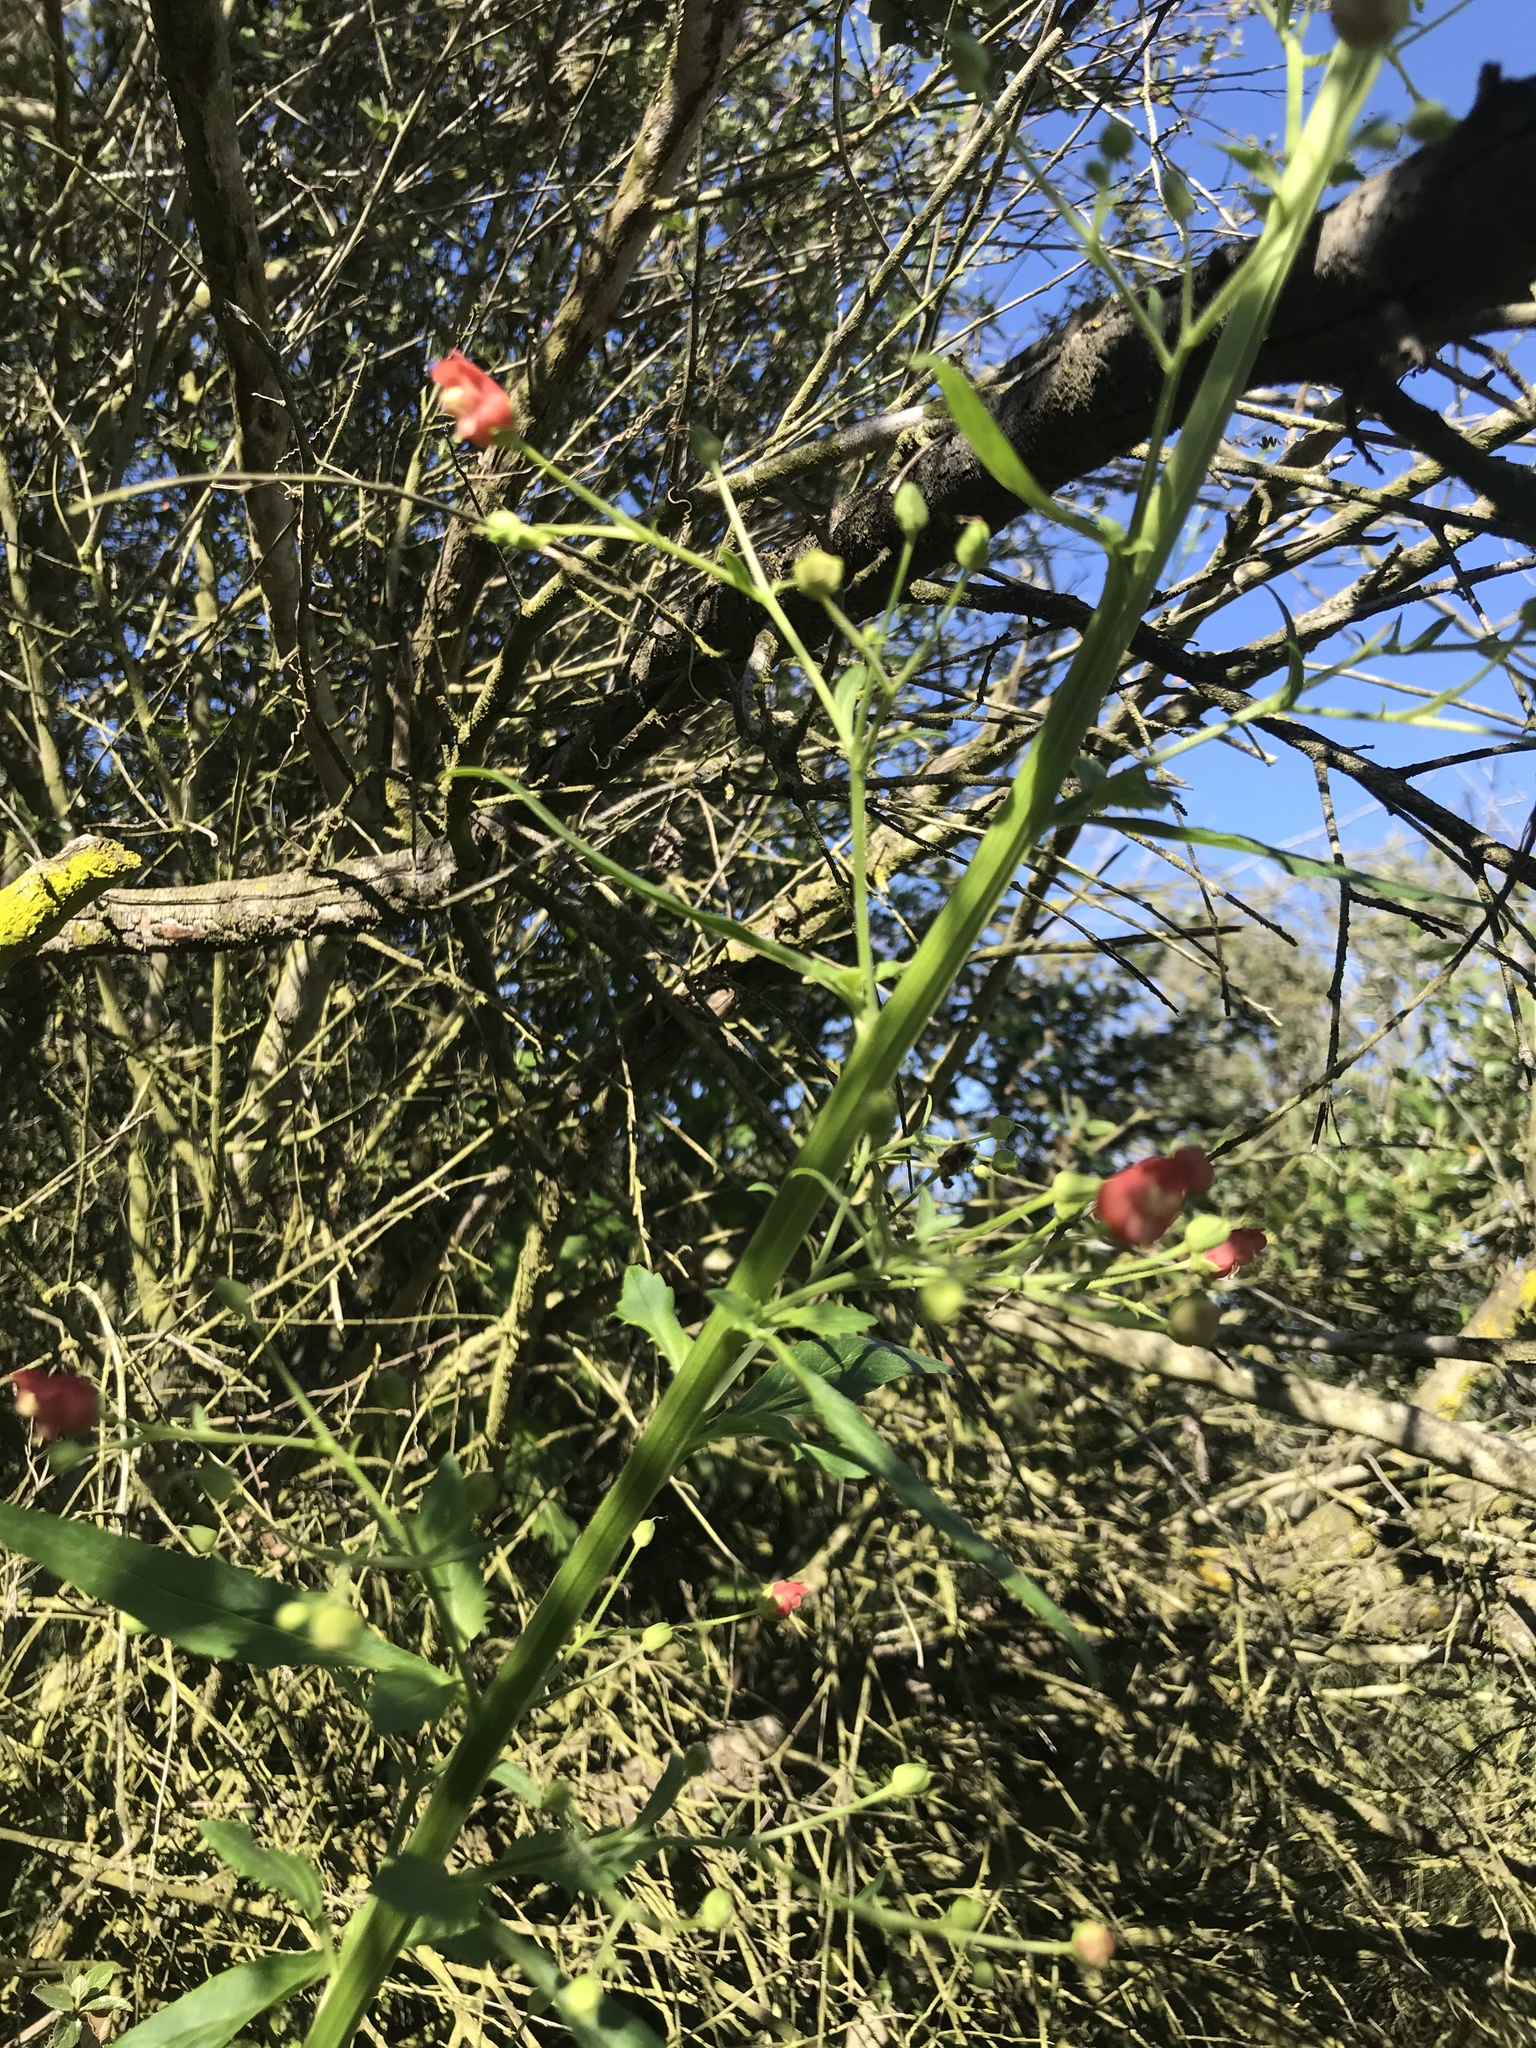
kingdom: Plantae
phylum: Tracheophyta
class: Magnoliopsida
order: Lamiales
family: Scrophulariaceae
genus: Scrophularia
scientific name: Scrophularia californica
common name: California figwort
